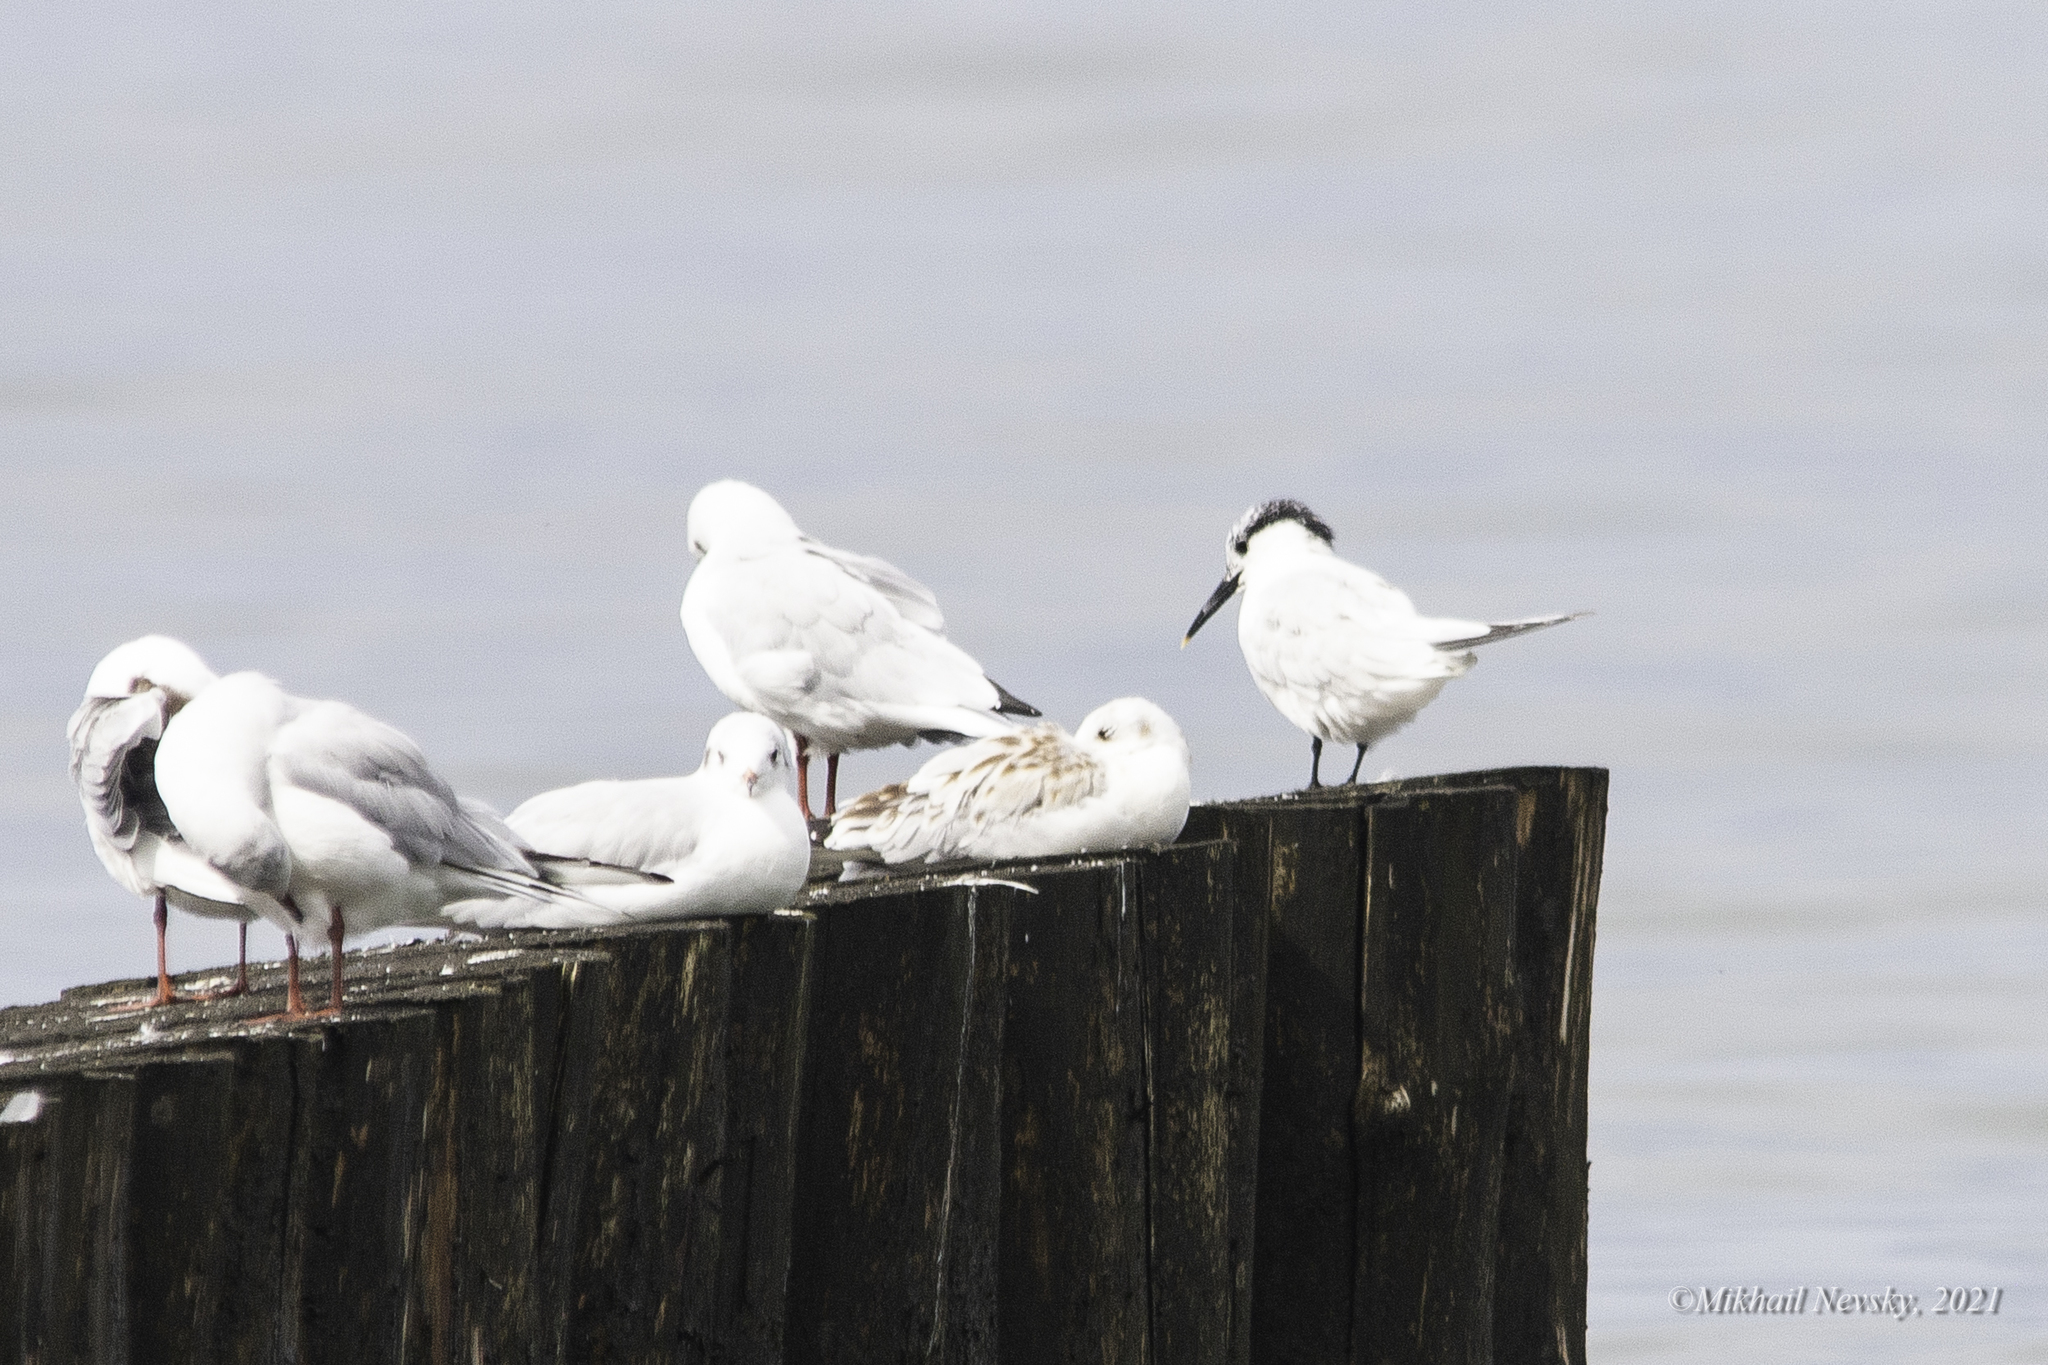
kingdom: Animalia
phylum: Chordata
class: Aves
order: Charadriiformes
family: Laridae
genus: Thalasseus
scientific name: Thalasseus sandvicensis
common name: Sandwich tern
